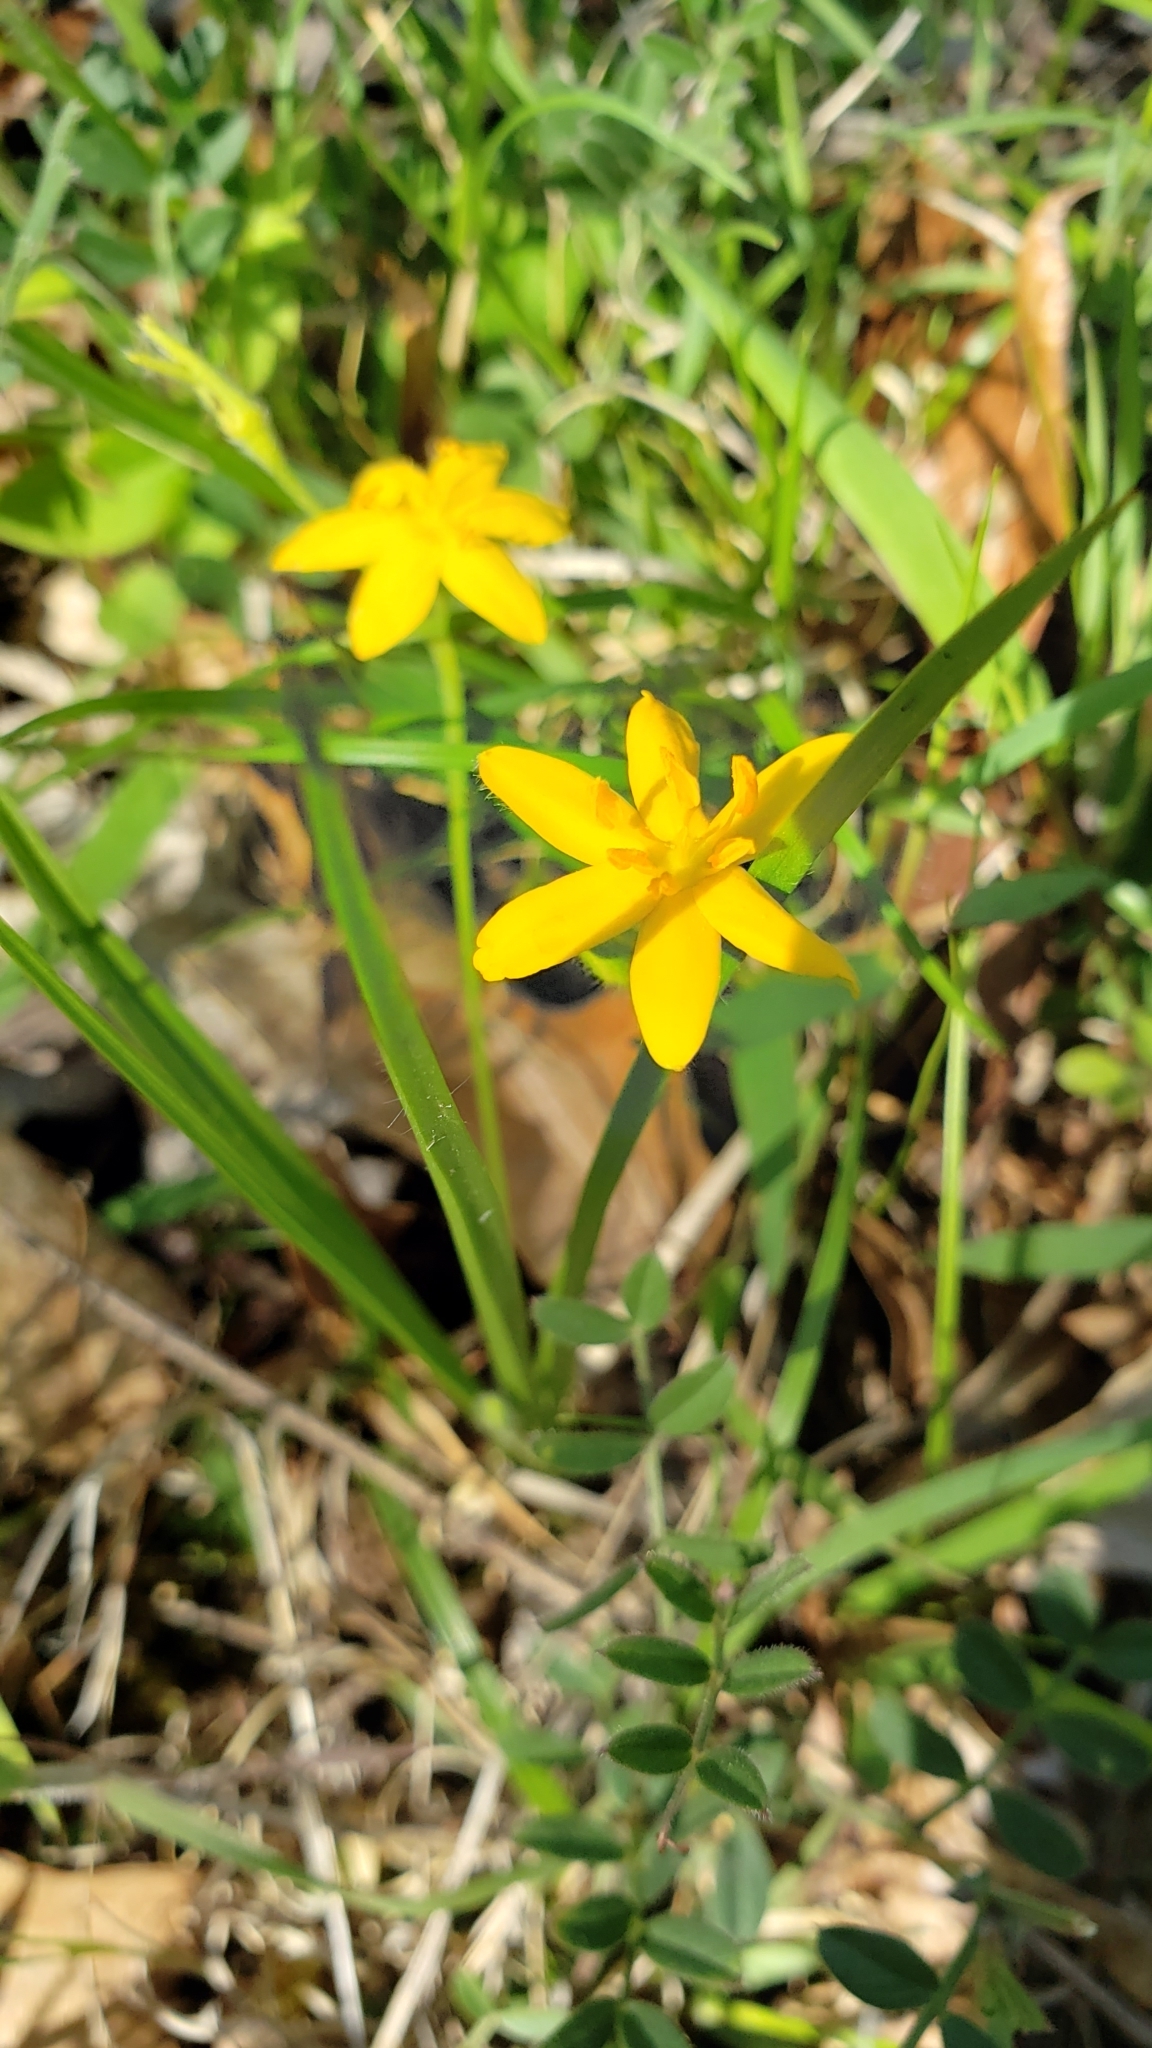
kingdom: Plantae
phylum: Tracheophyta
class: Liliopsida
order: Asparagales
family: Hypoxidaceae
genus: Hypoxis
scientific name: Hypoxis hirsuta
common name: Common goldstar
